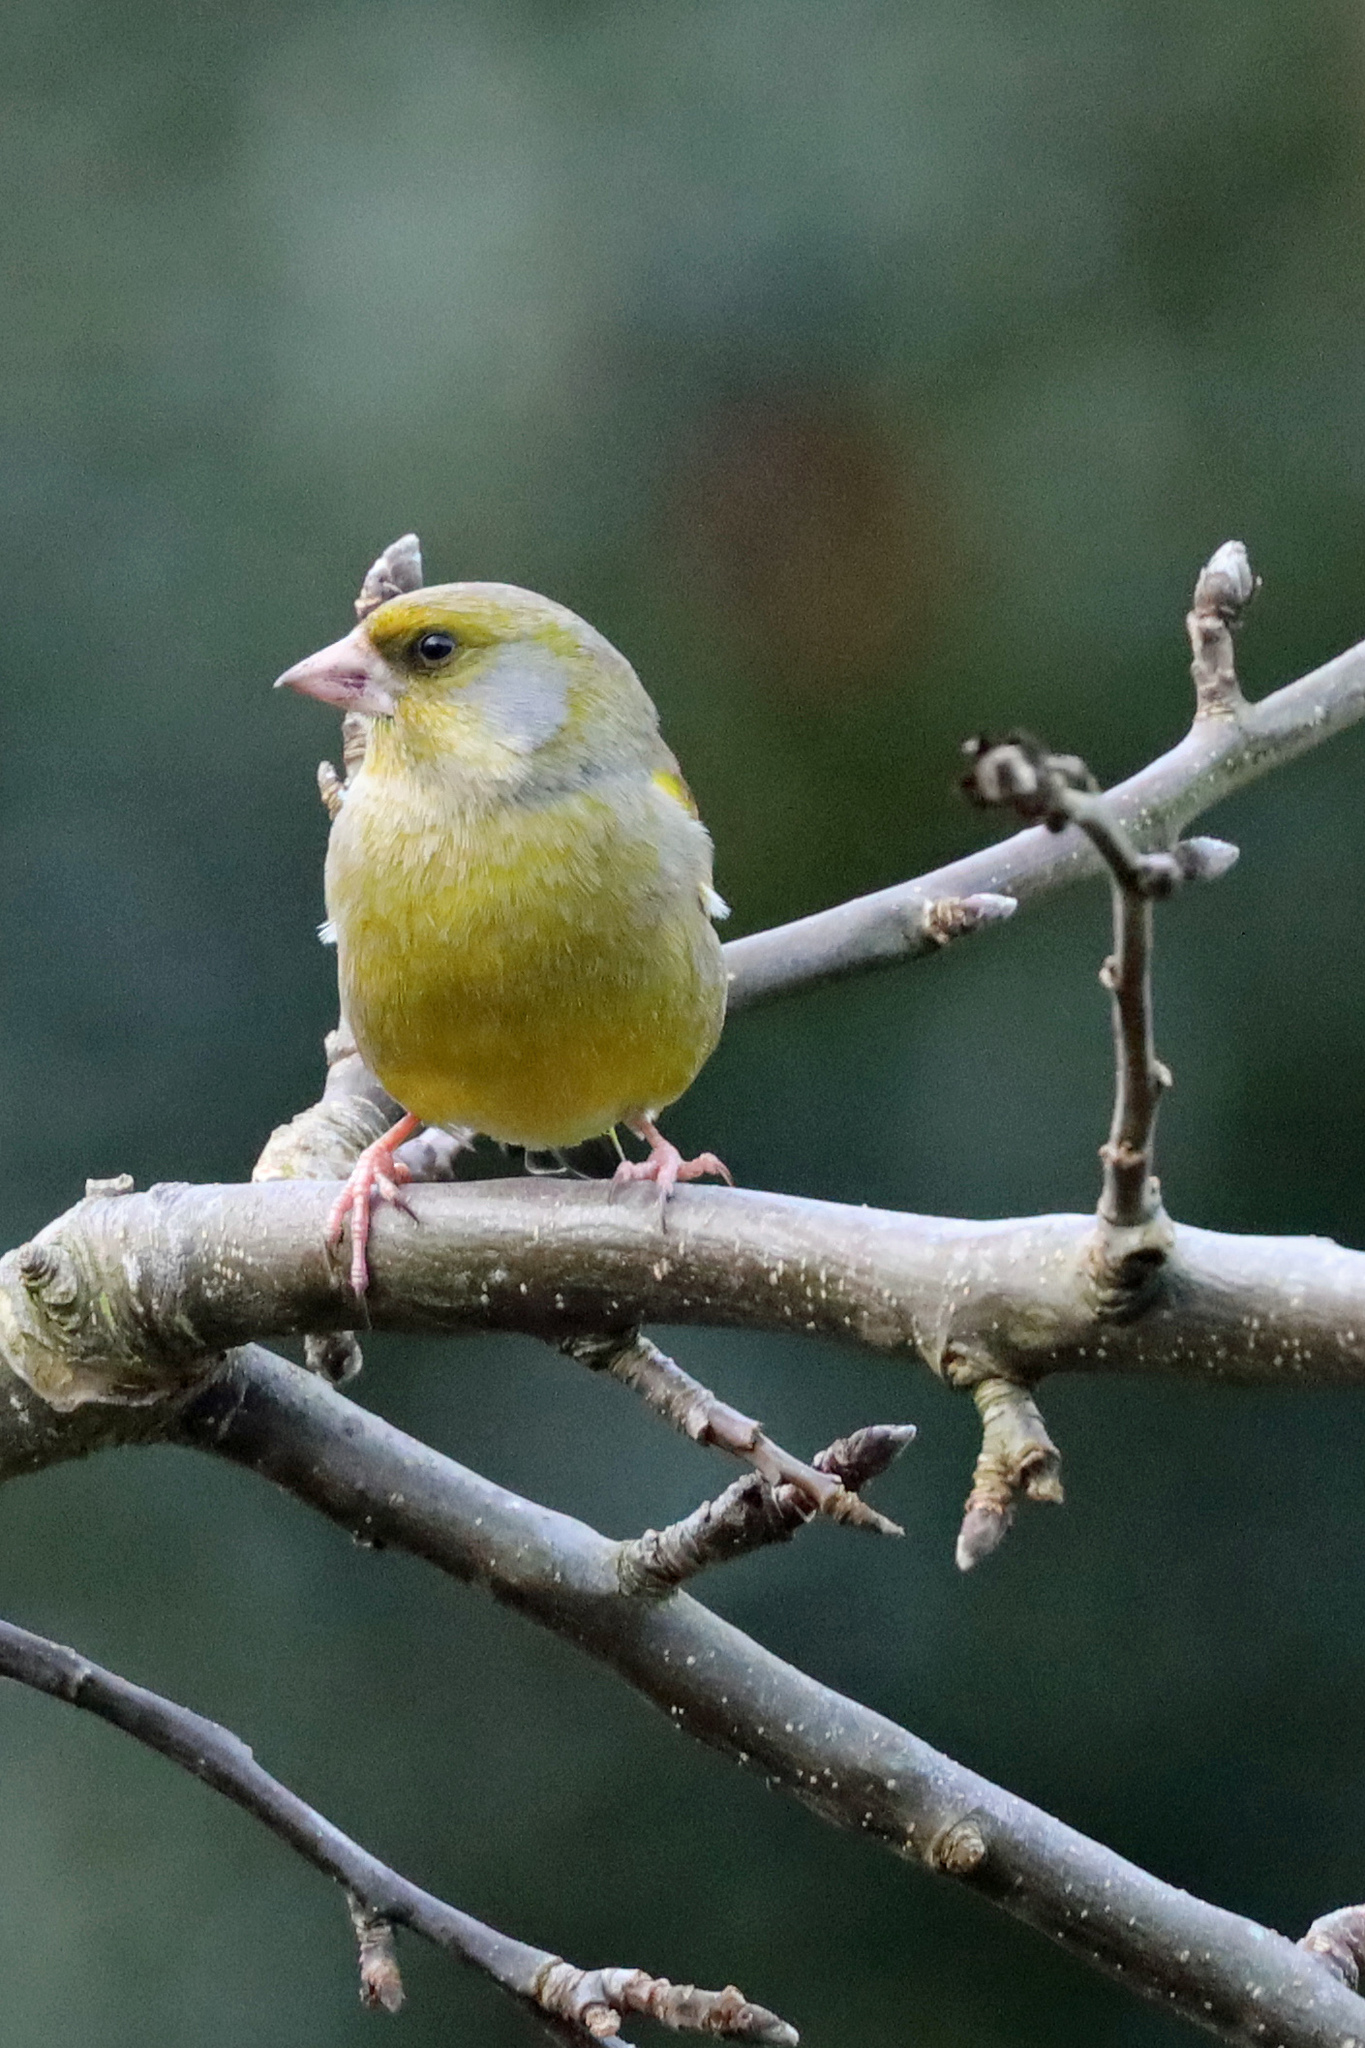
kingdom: Plantae
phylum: Tracheophyta
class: Liliopsida
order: Poales
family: Poaceae
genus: Chloris
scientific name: Chloris chloris
